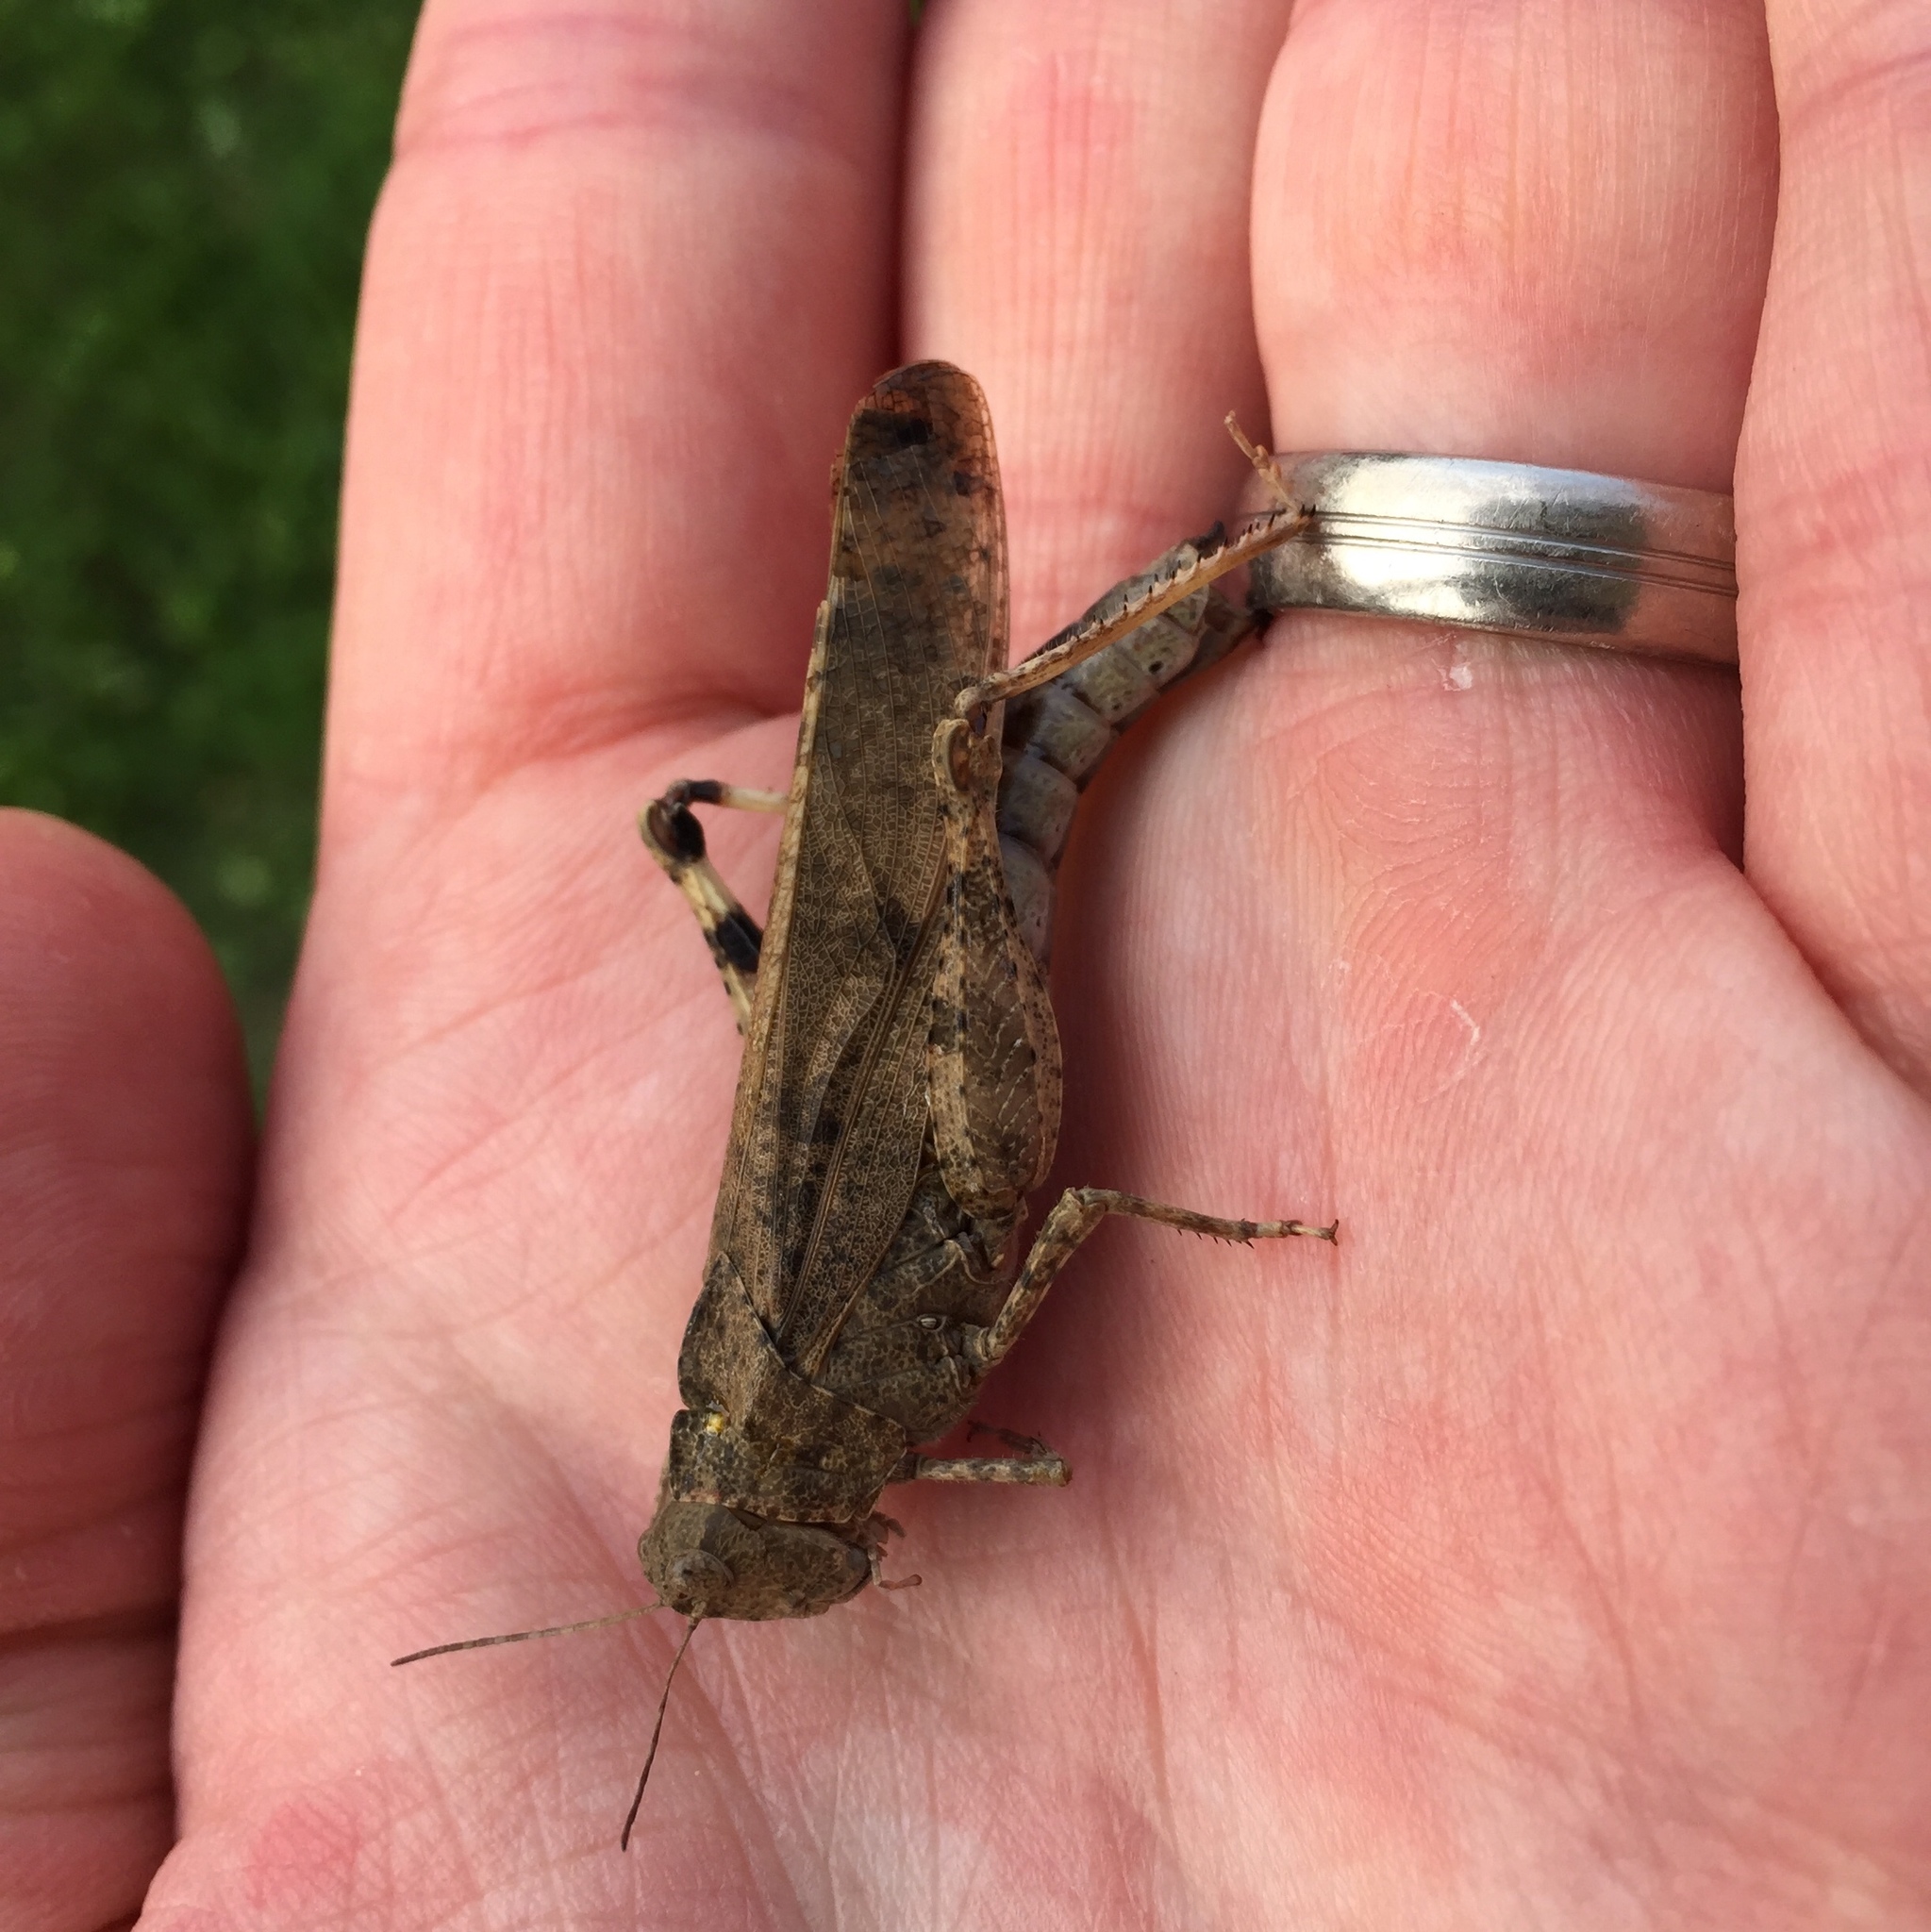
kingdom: Animalia
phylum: Arthropoda
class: Insecta
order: Orthoptera
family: Acrididae
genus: Dissosteira
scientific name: Dissosteira carolina
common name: Carolina grasshopper
